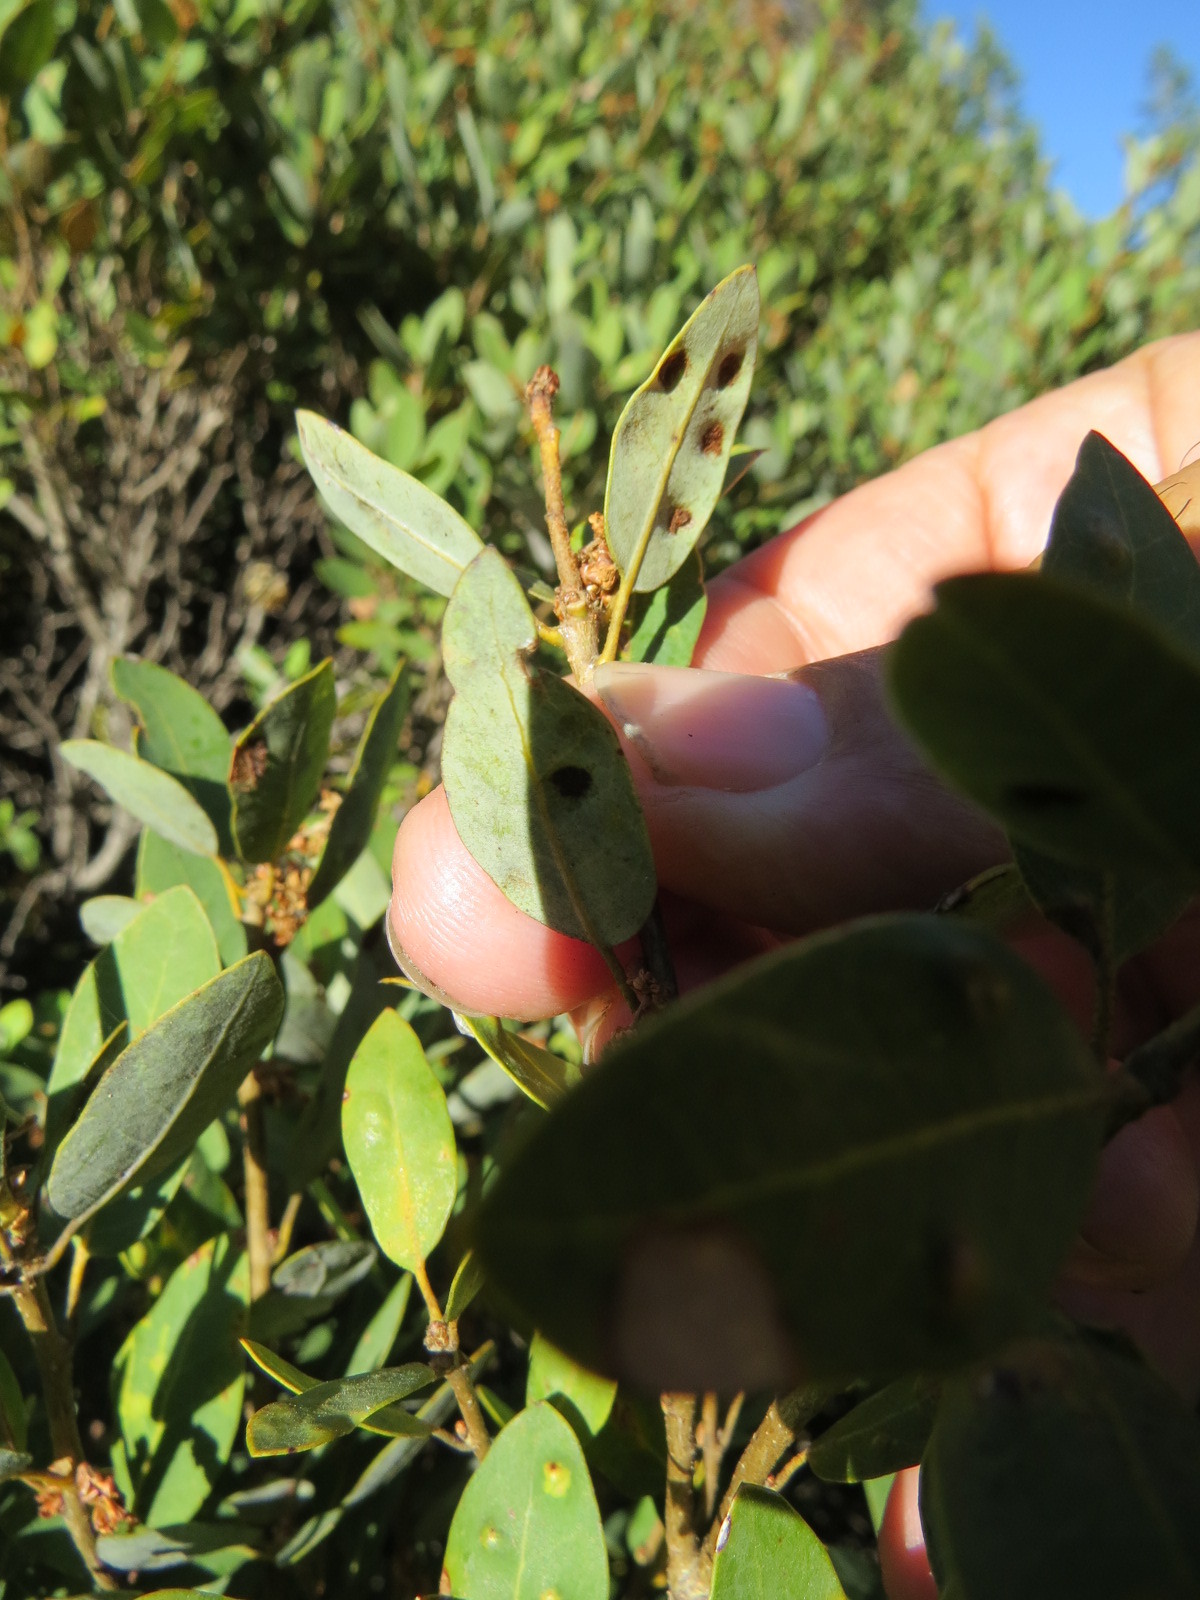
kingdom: Animalia
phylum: Arthropoda
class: Arachnida
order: Trombidiformes
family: Eriophyidae
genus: Aceria
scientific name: Aceria
